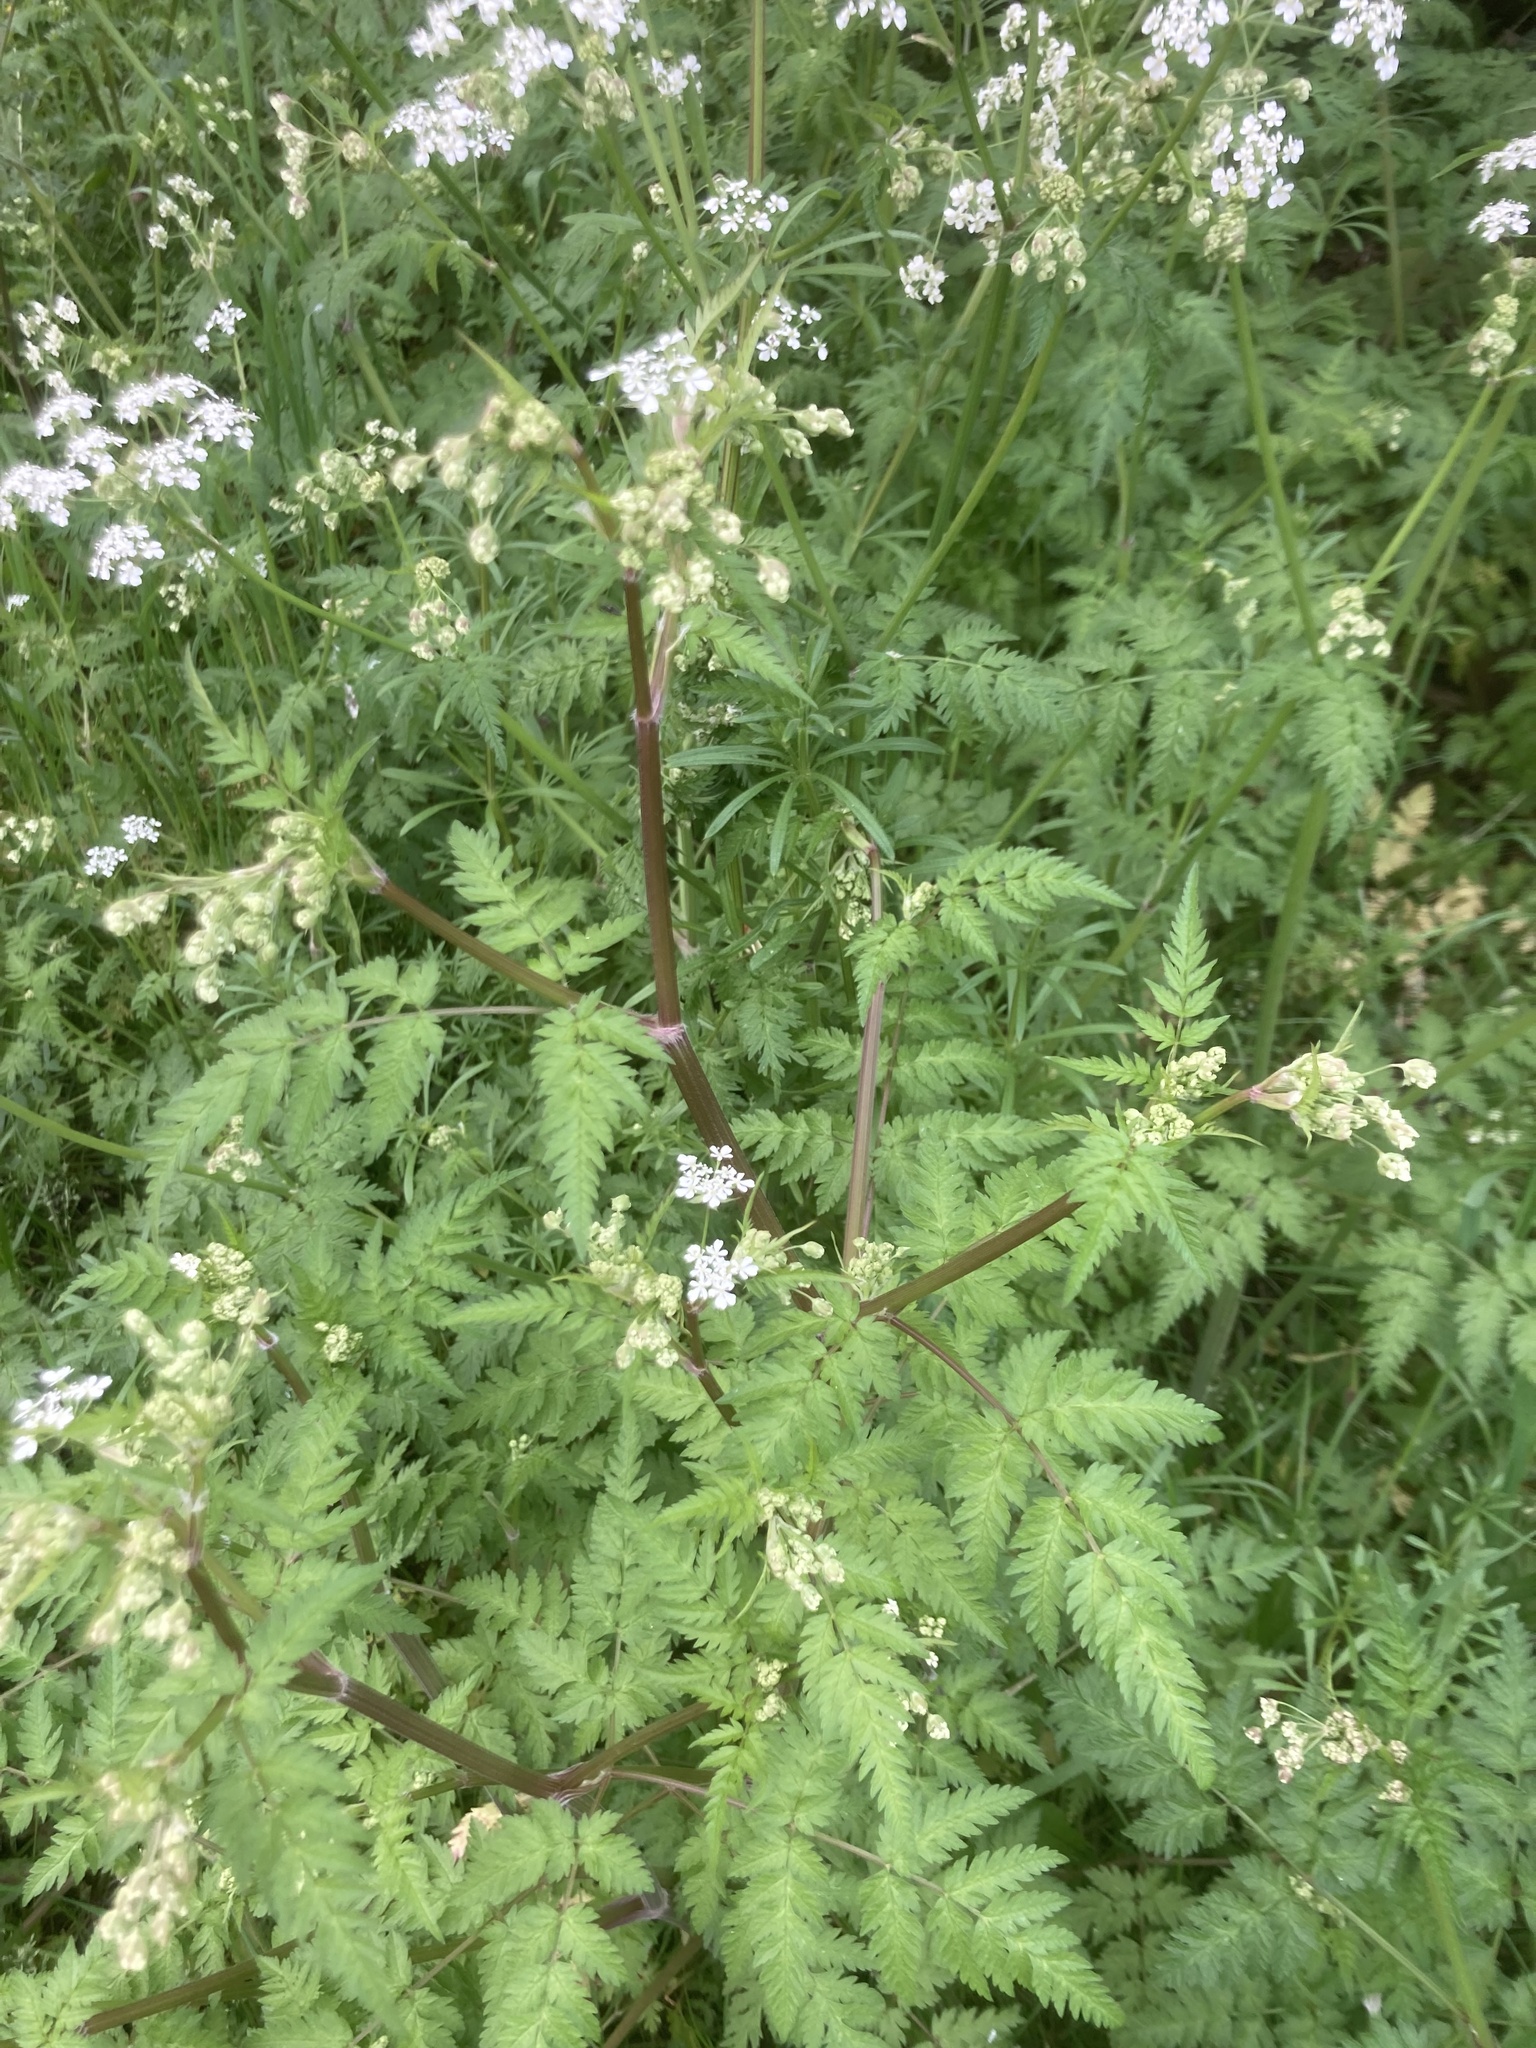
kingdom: Plantae
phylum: Tracheophyta
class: Magnoliopsida
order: Apiales
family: Apiaceae
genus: Anthriscus
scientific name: Anthriscus sylvestris
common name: Cow parsley
